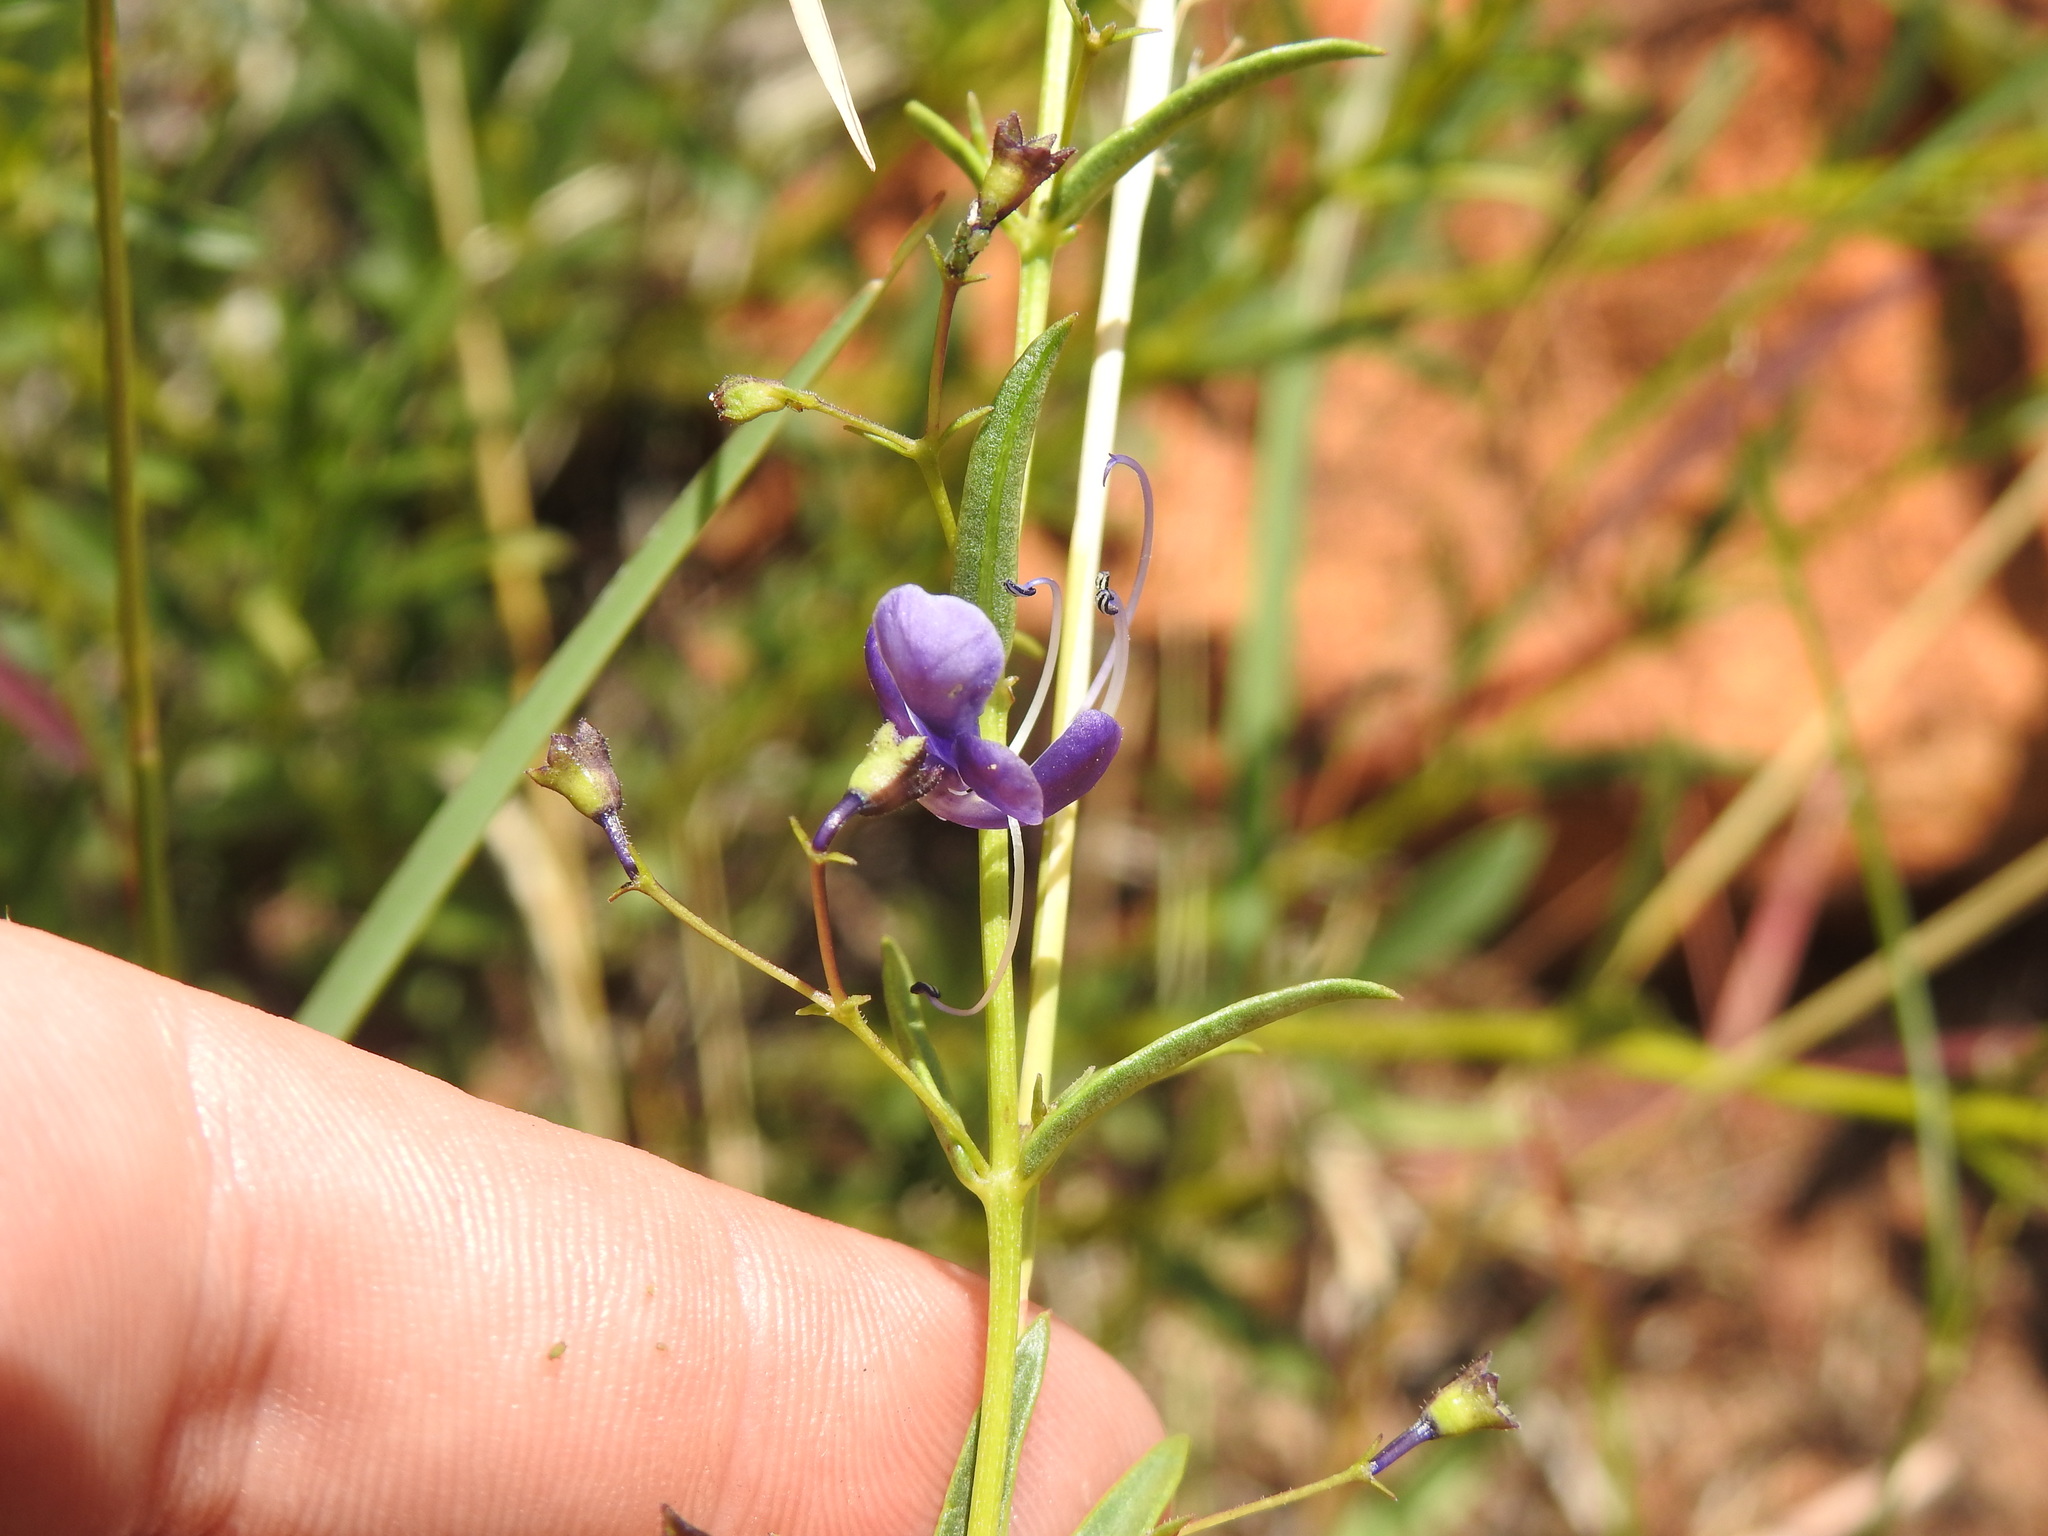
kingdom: Plantae
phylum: Tracheophyta
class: Magnoliopsida
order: Lamiales
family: Lamiaceae
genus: Rotheca
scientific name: Rotheca hirsuta
